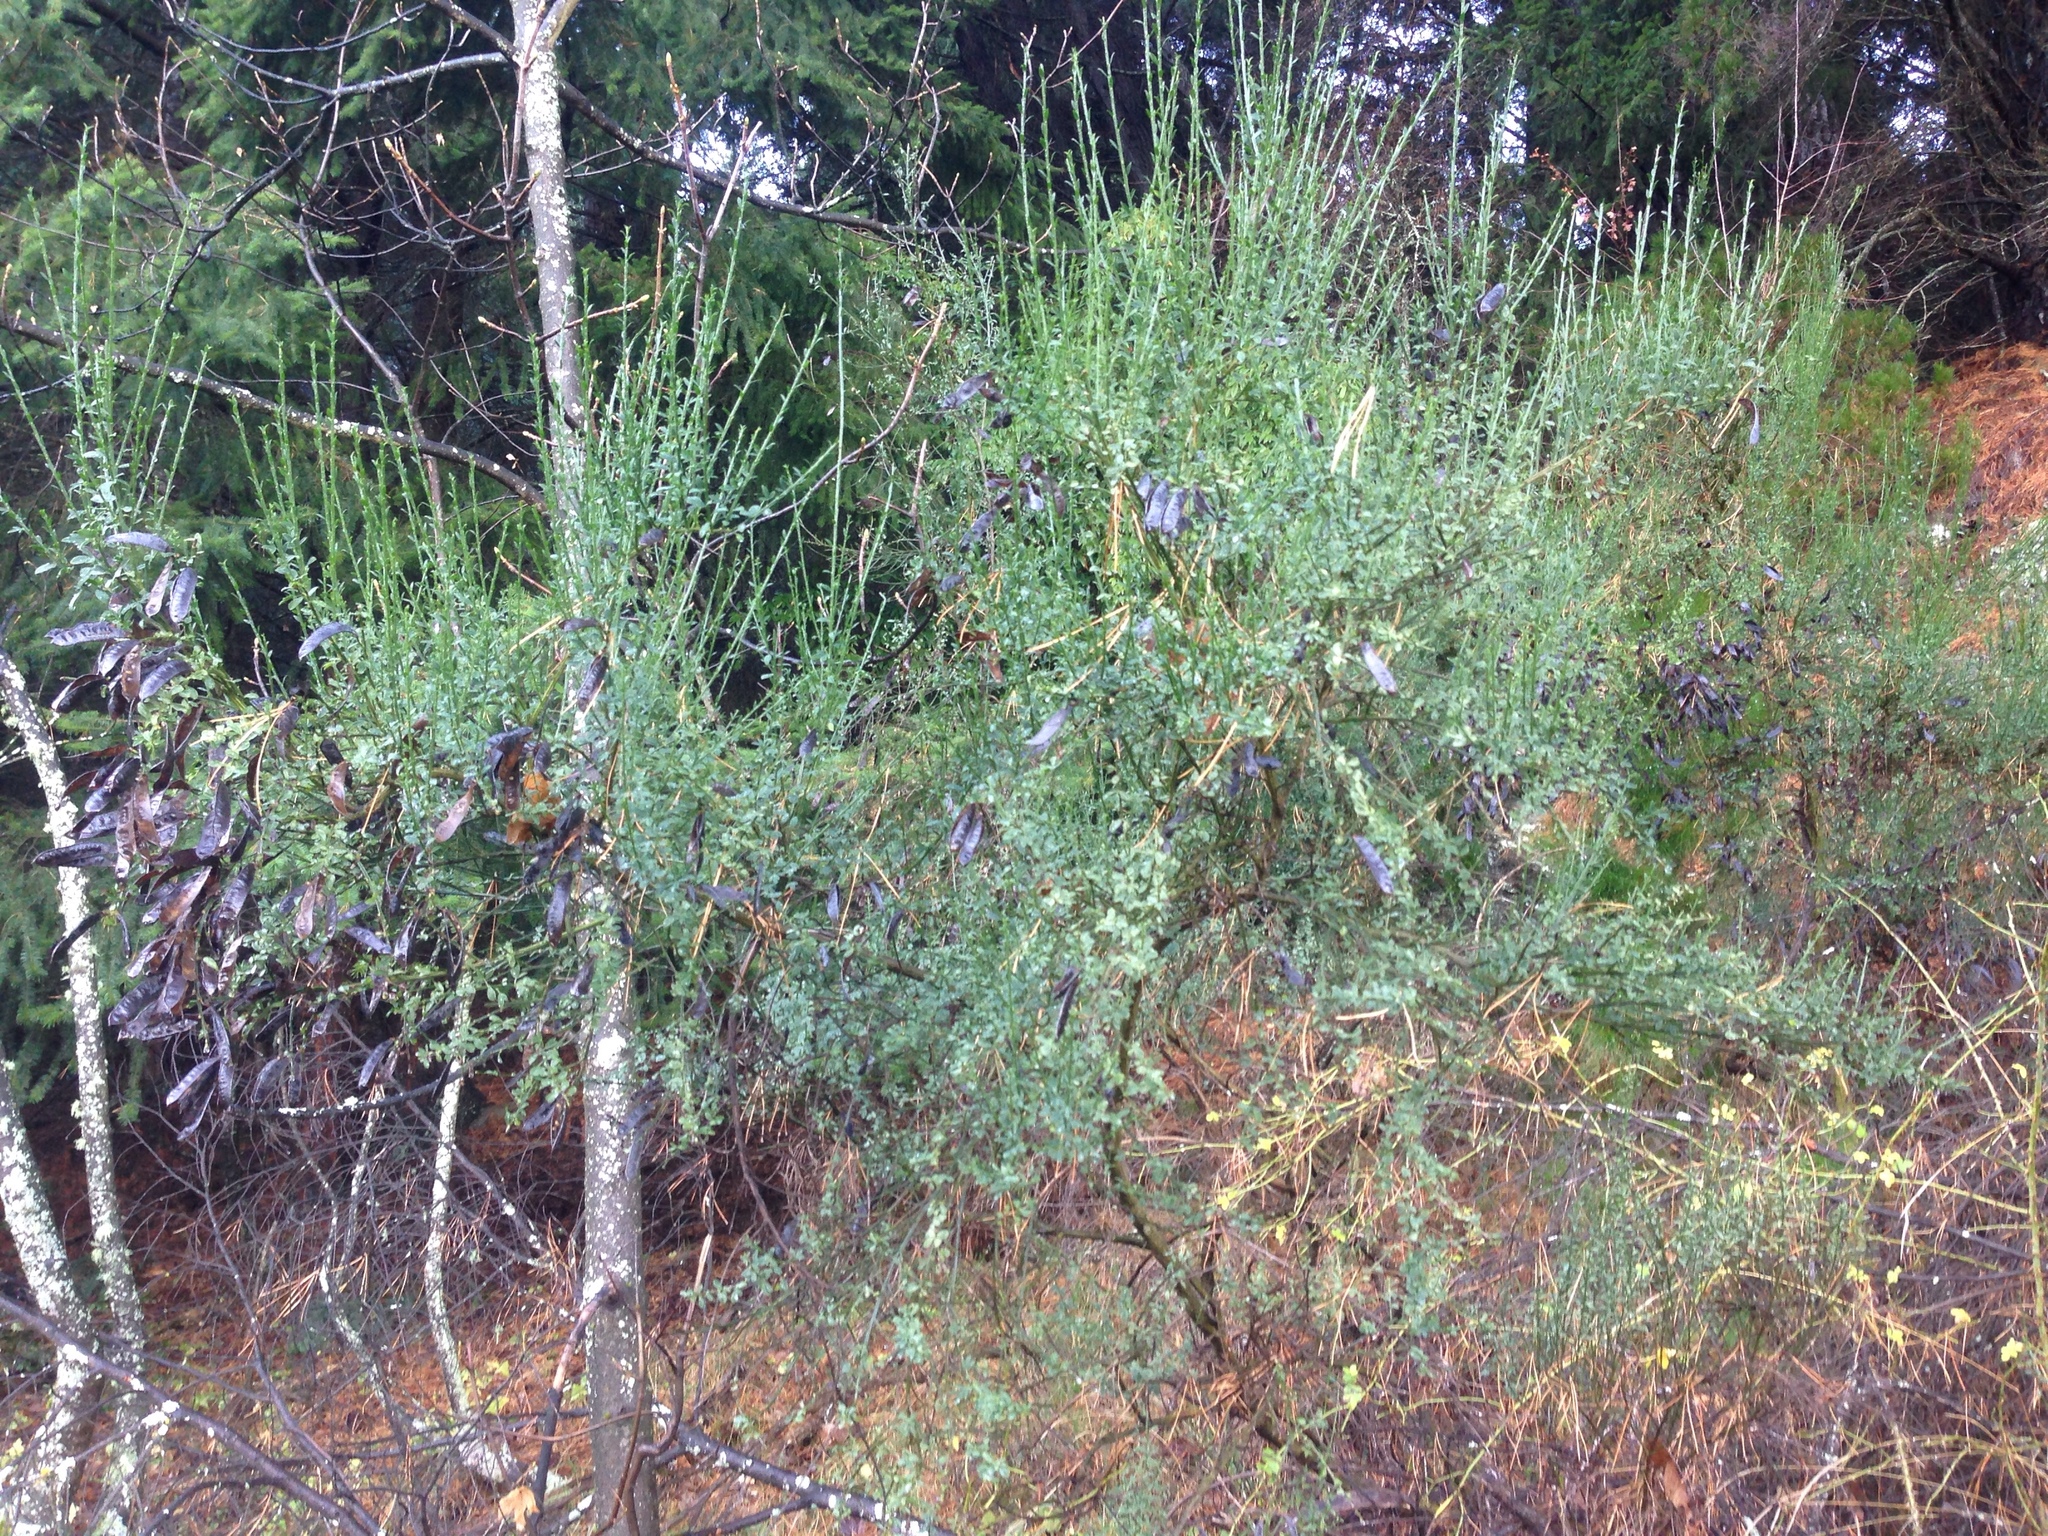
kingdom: Plantae
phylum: Tracheophyta
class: Magnoliopsida
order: Fabales
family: Fabaceae
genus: Cytisus
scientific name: Cytisus scoparius
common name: Scotch broom
